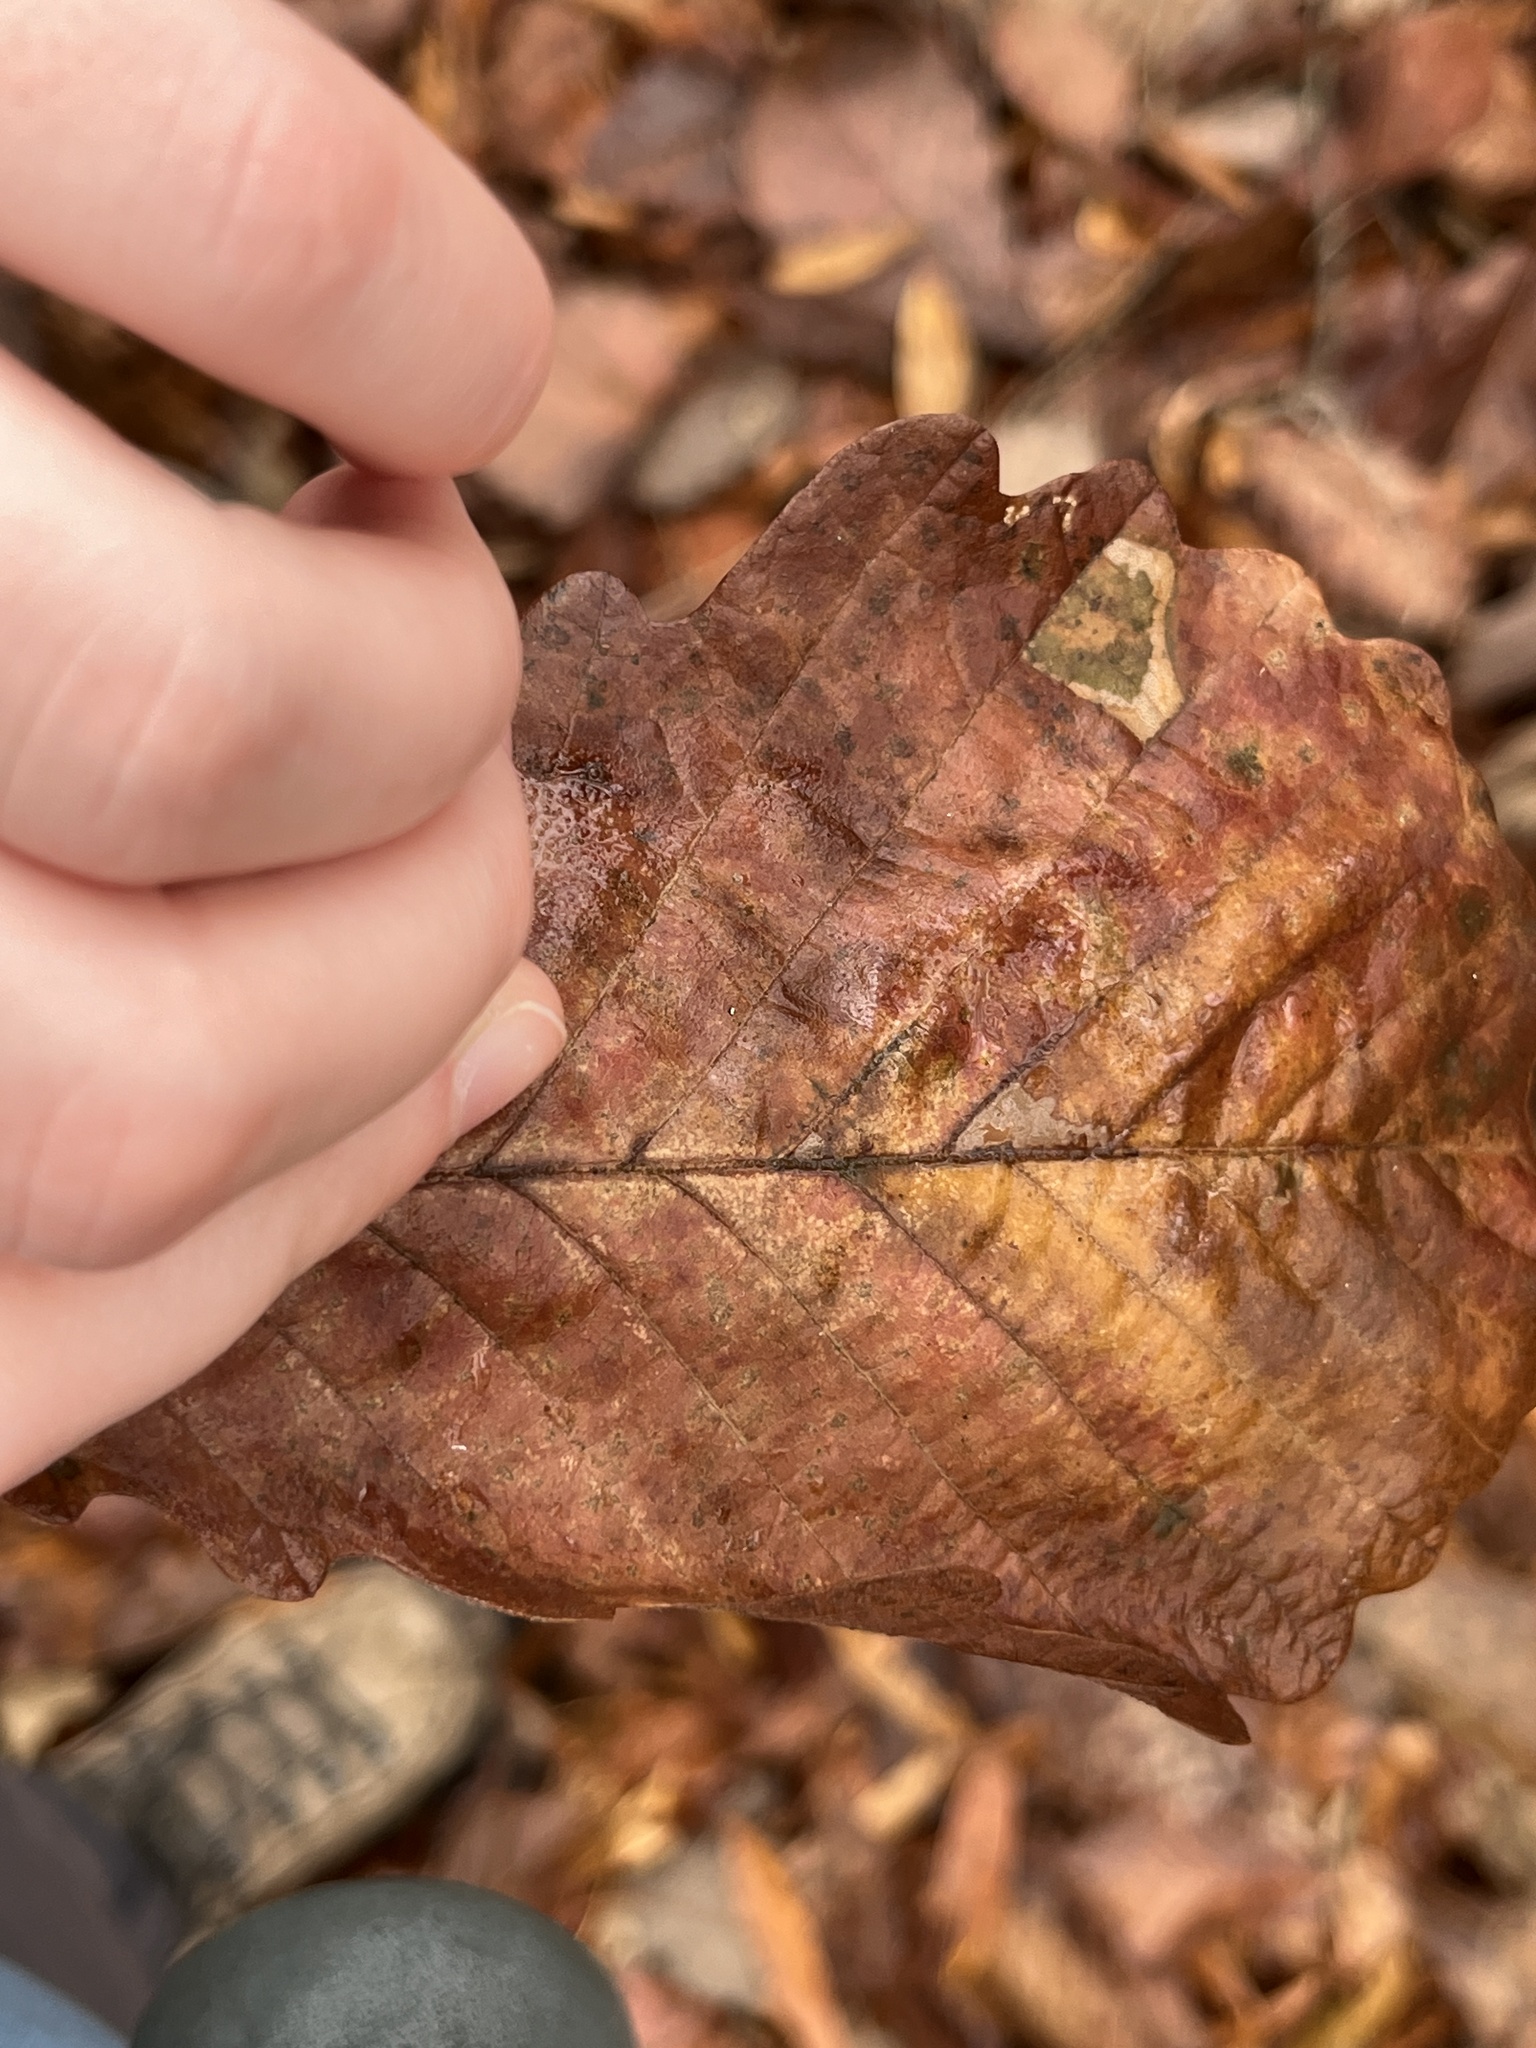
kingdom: Animalia
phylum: Arthropoda
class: Insecta
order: Hymenoptera
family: Cynipidae
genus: Acraspis
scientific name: Acraspis
